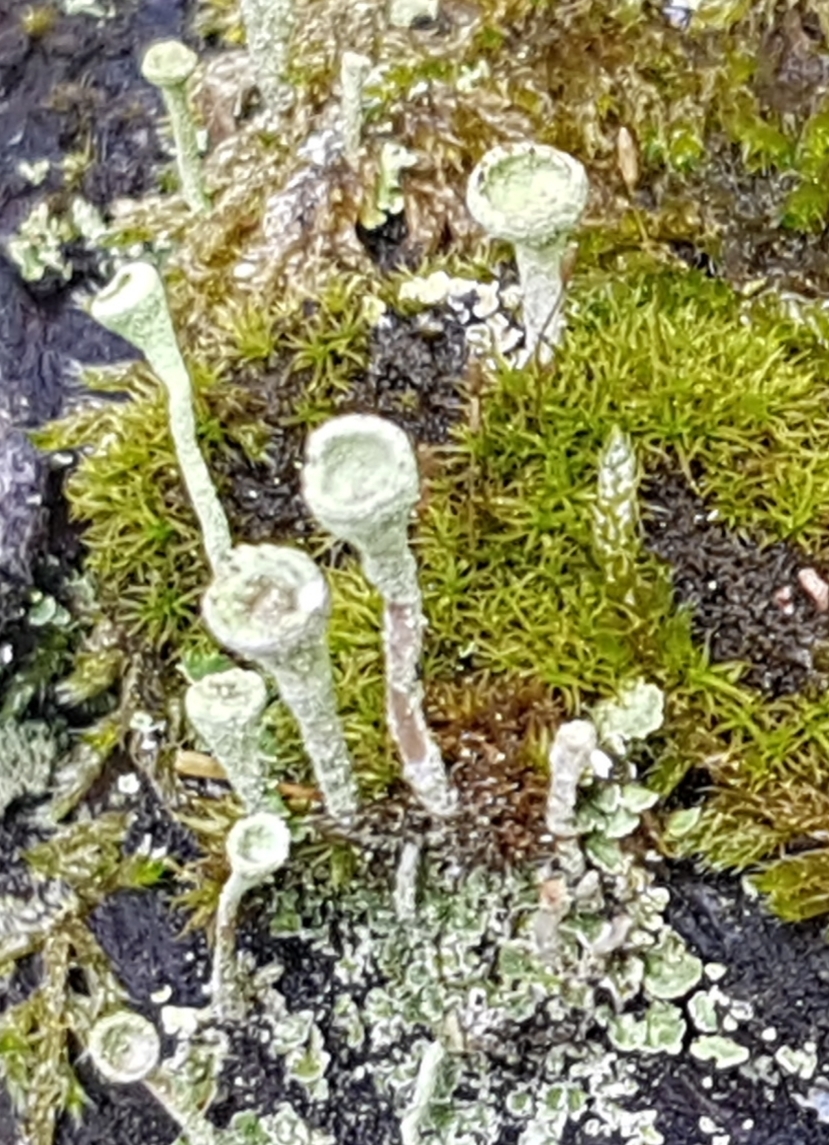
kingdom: Fungi
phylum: Ascomycota
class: Lecanoromycetes
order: Lecanorales
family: Cladoniaceae
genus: Cladonia
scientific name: Cladonia fimbriata
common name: Powdered trumpet lichen
